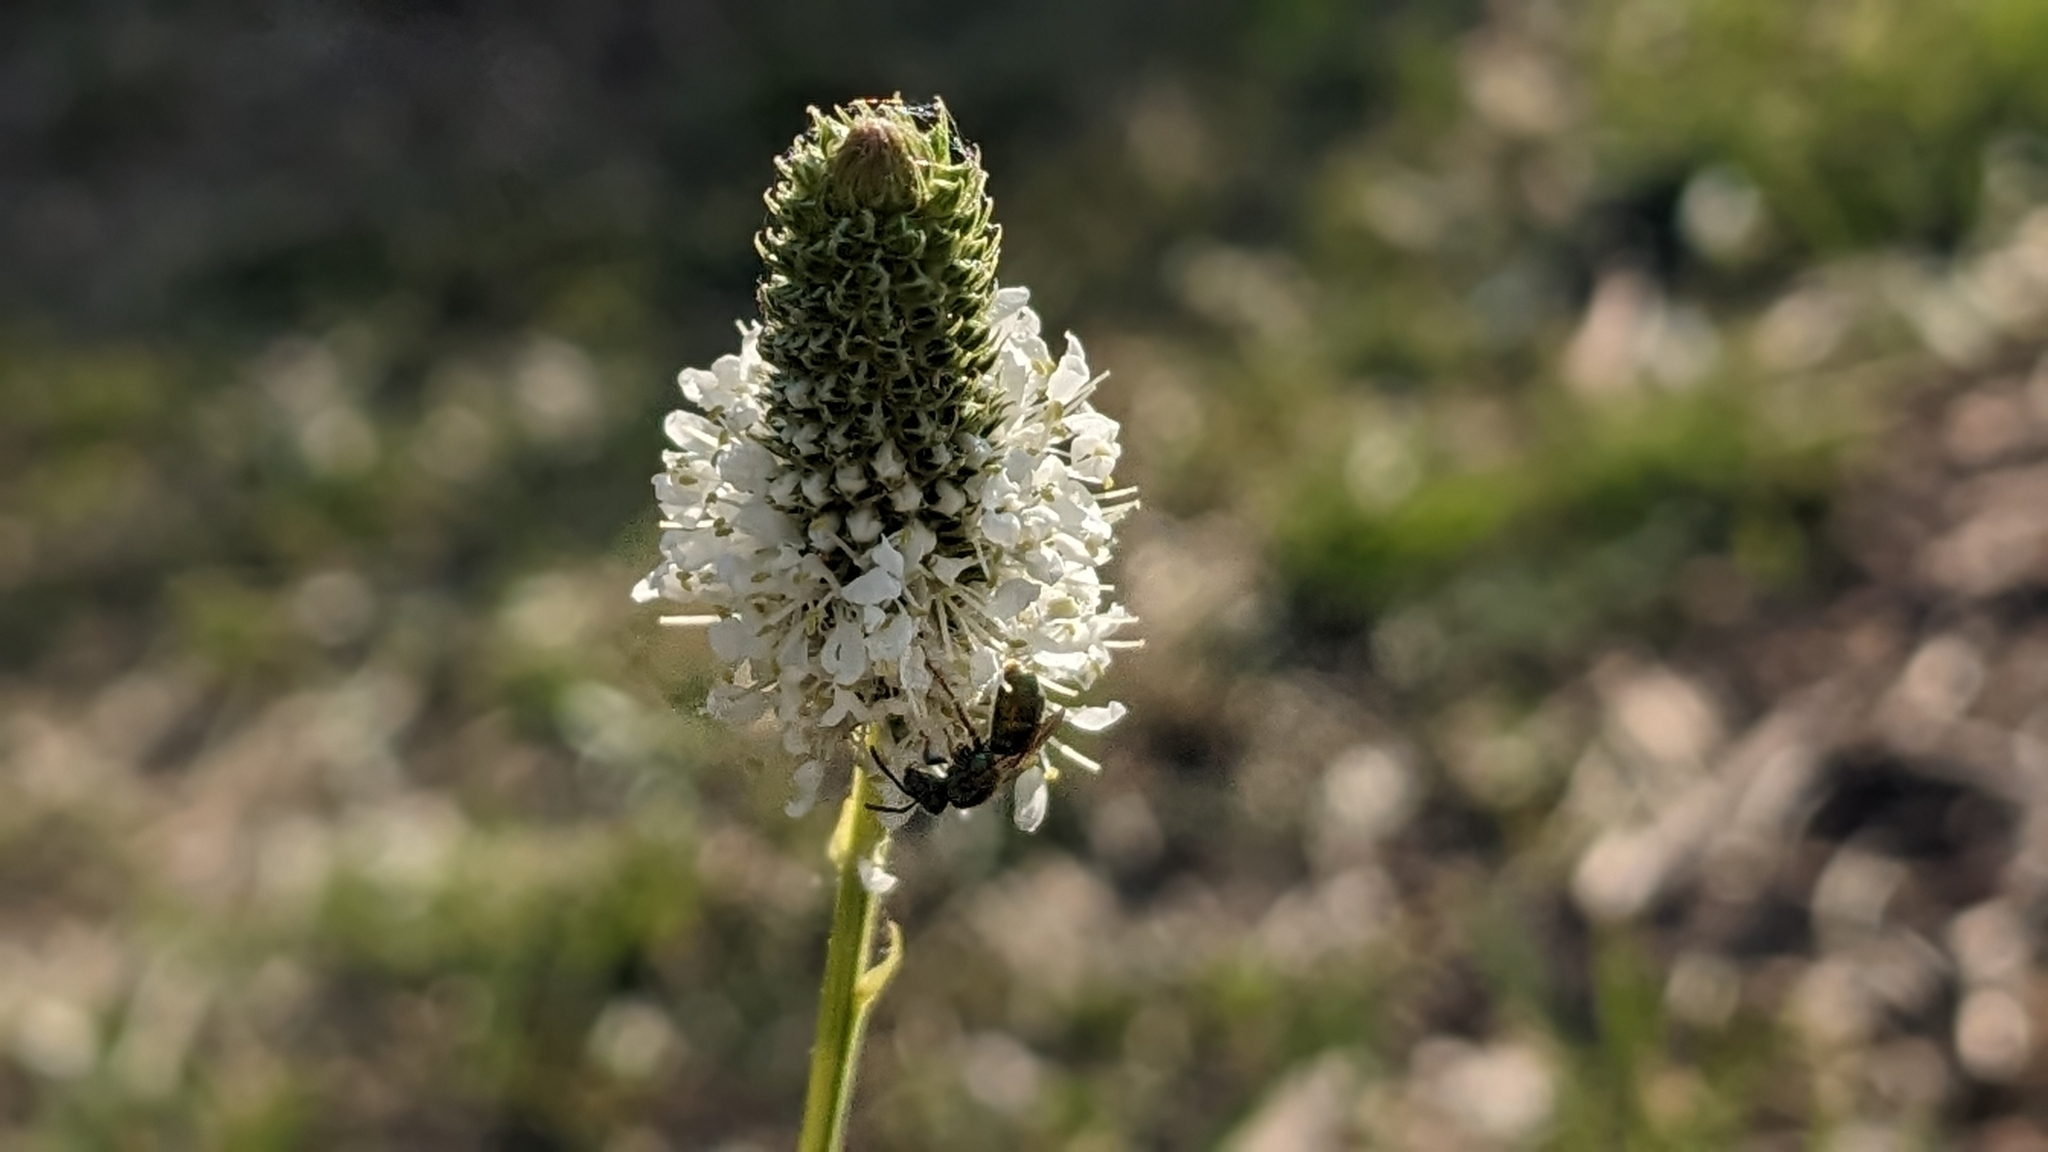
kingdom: Plantae
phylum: Tracheophyta
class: Magnoliopsida
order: Fabales
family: Fabaceae
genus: Dalea
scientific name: Dalea candida
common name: White prairie-clover
